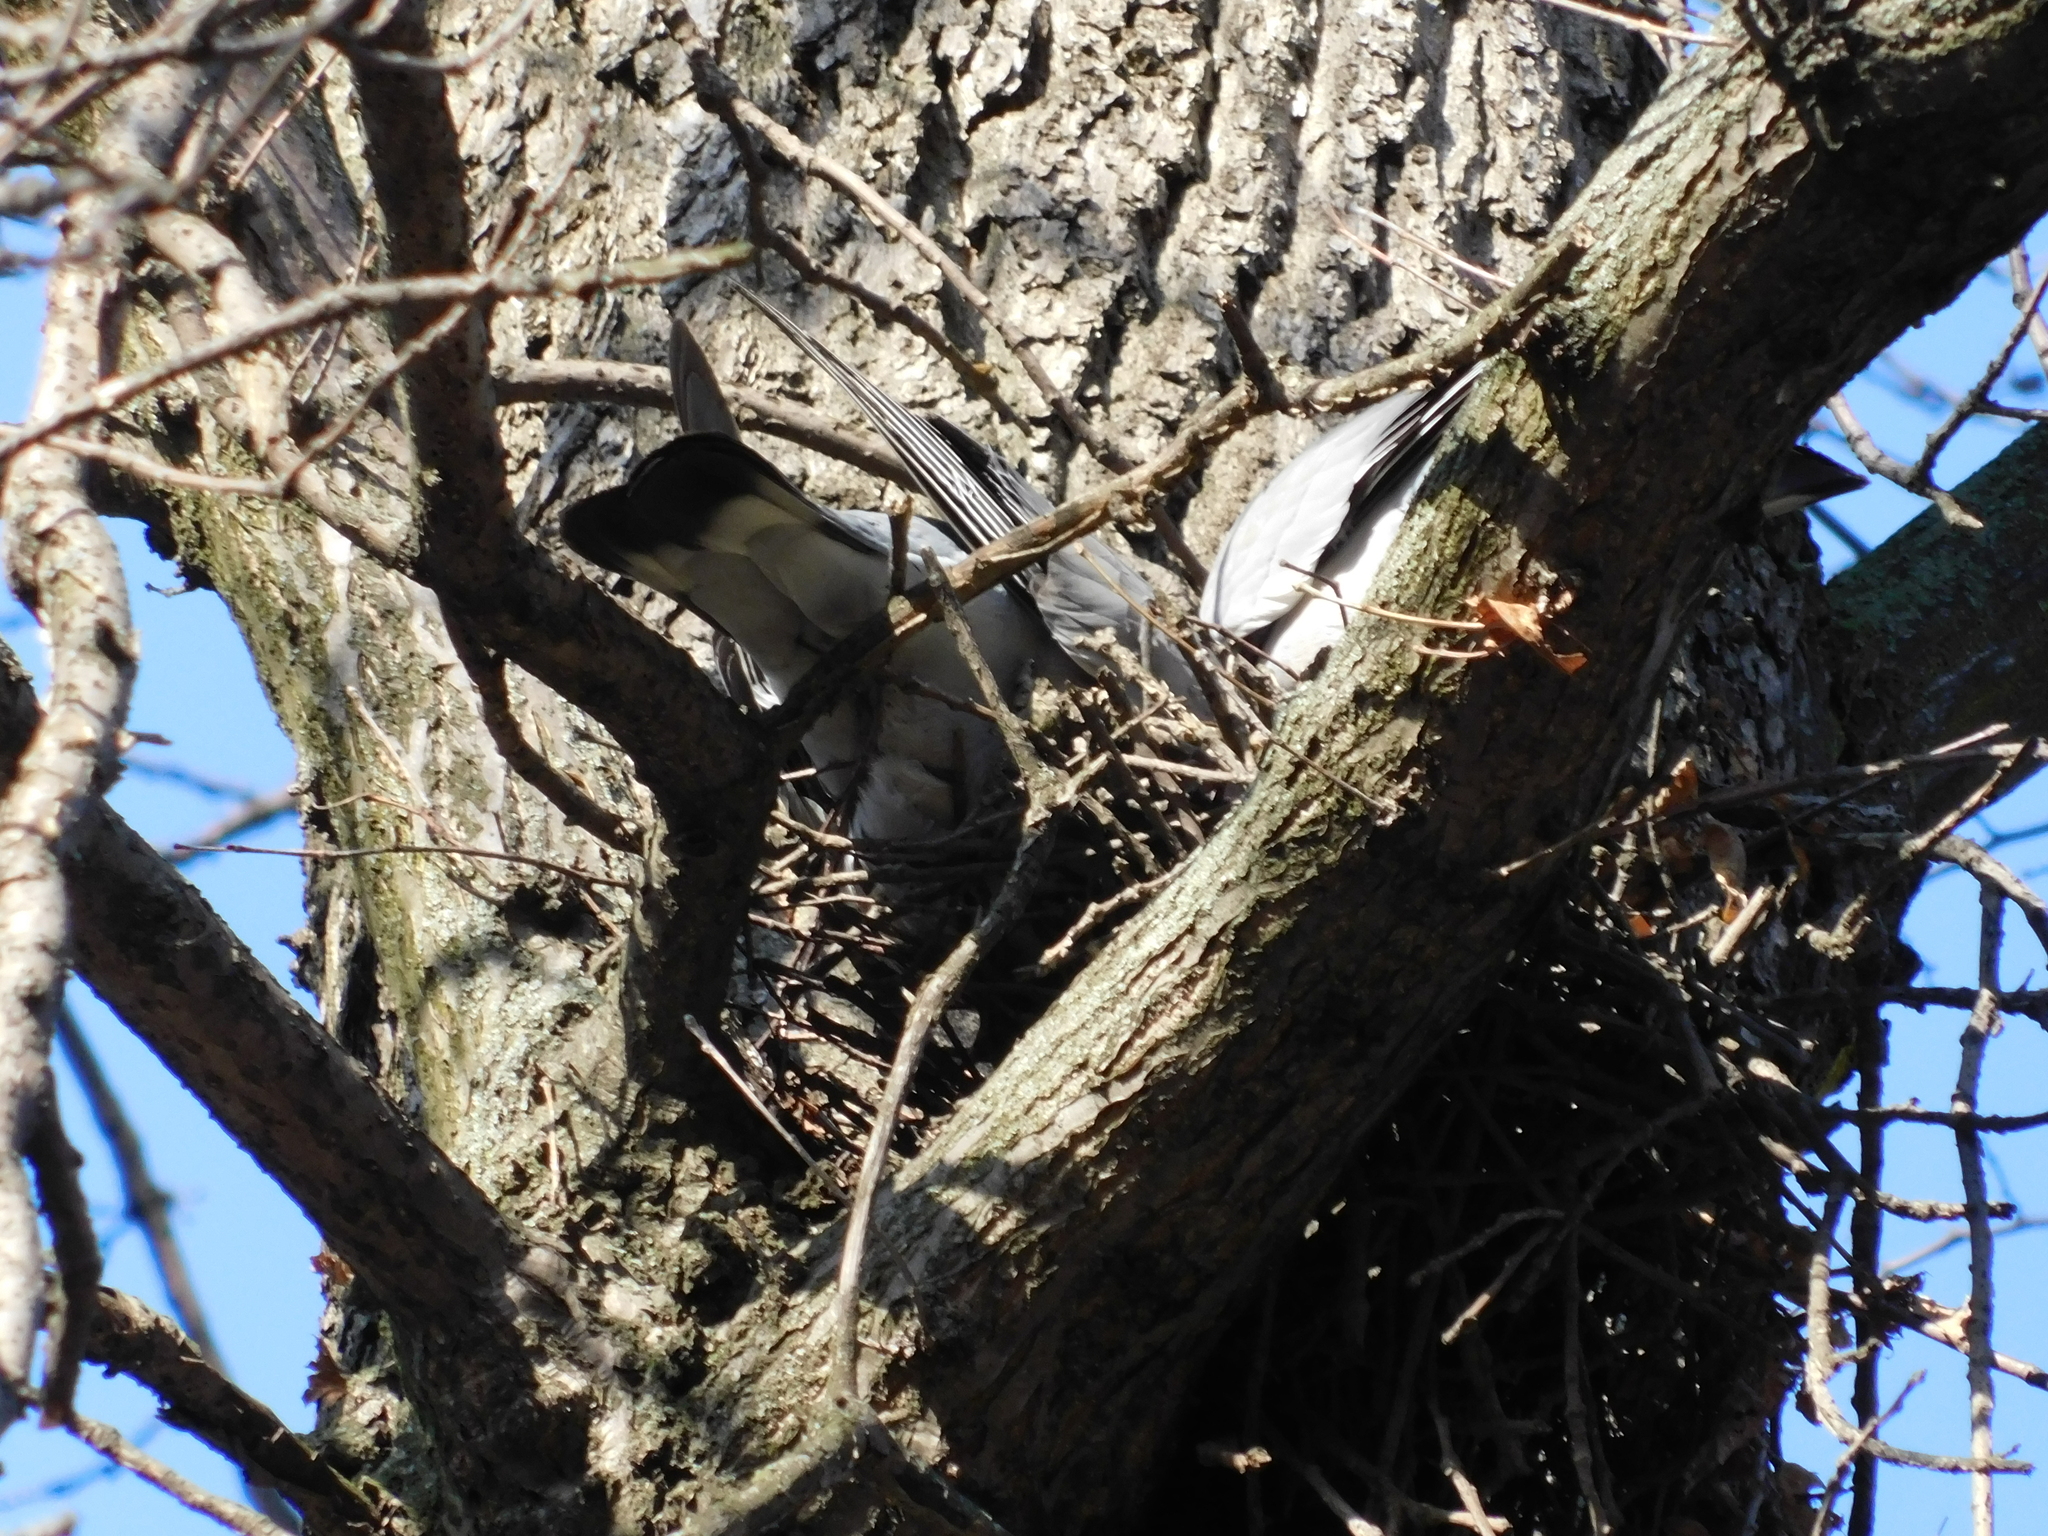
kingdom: Animalia
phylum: Chordata
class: Aves
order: Columbiformes
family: Columbidae
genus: Columba
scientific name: Columba palumbus
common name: Common wood pigeon
